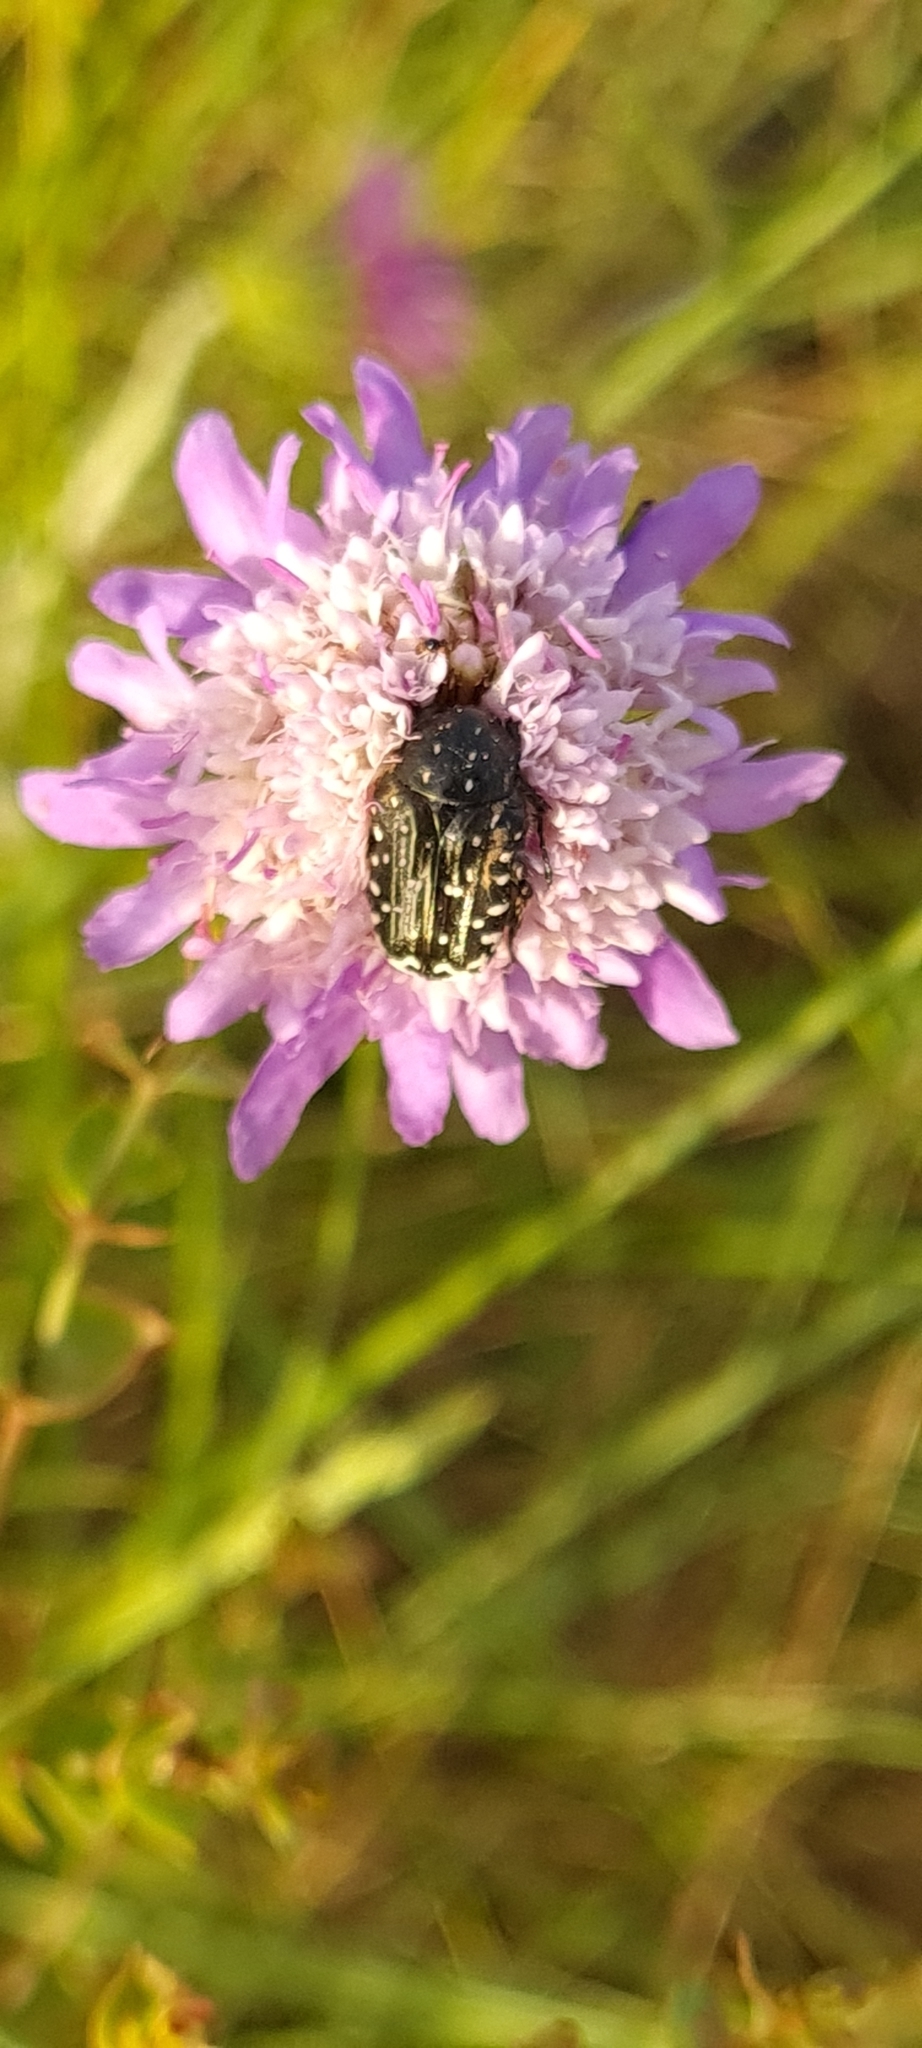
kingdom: Animalia
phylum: Arthropoda
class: Insecta
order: Coleoptera
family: Scarabaeidae
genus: Oxythyrea
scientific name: Oxythyrea funesta
